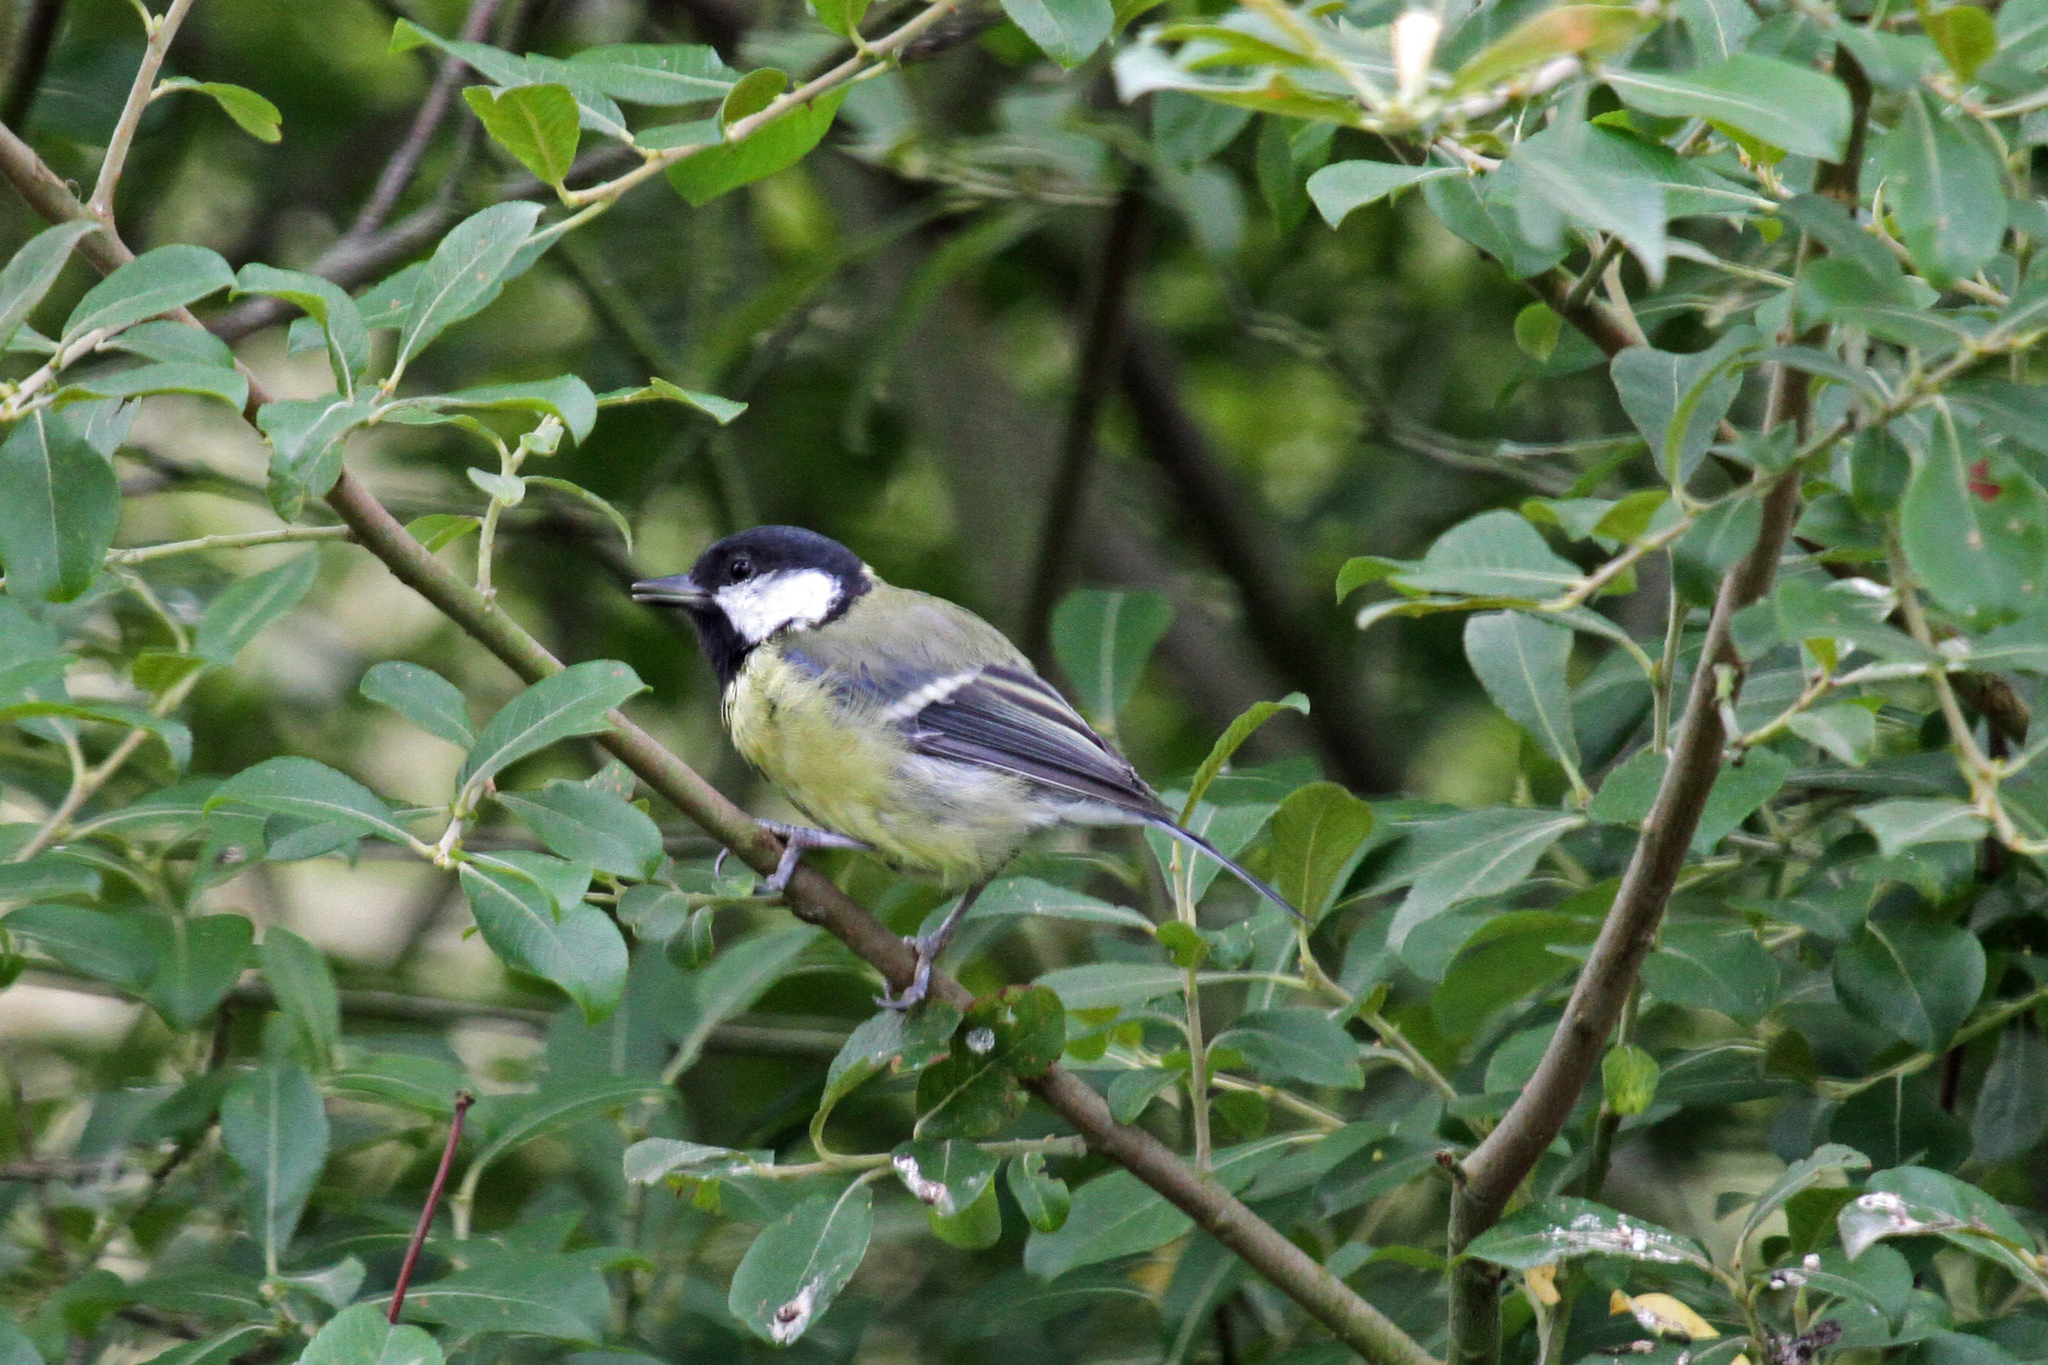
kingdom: Animalia
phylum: Chordata
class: Aves
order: Passeriformes
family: Paridae
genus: Parus
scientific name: Parus major
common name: Great tit
